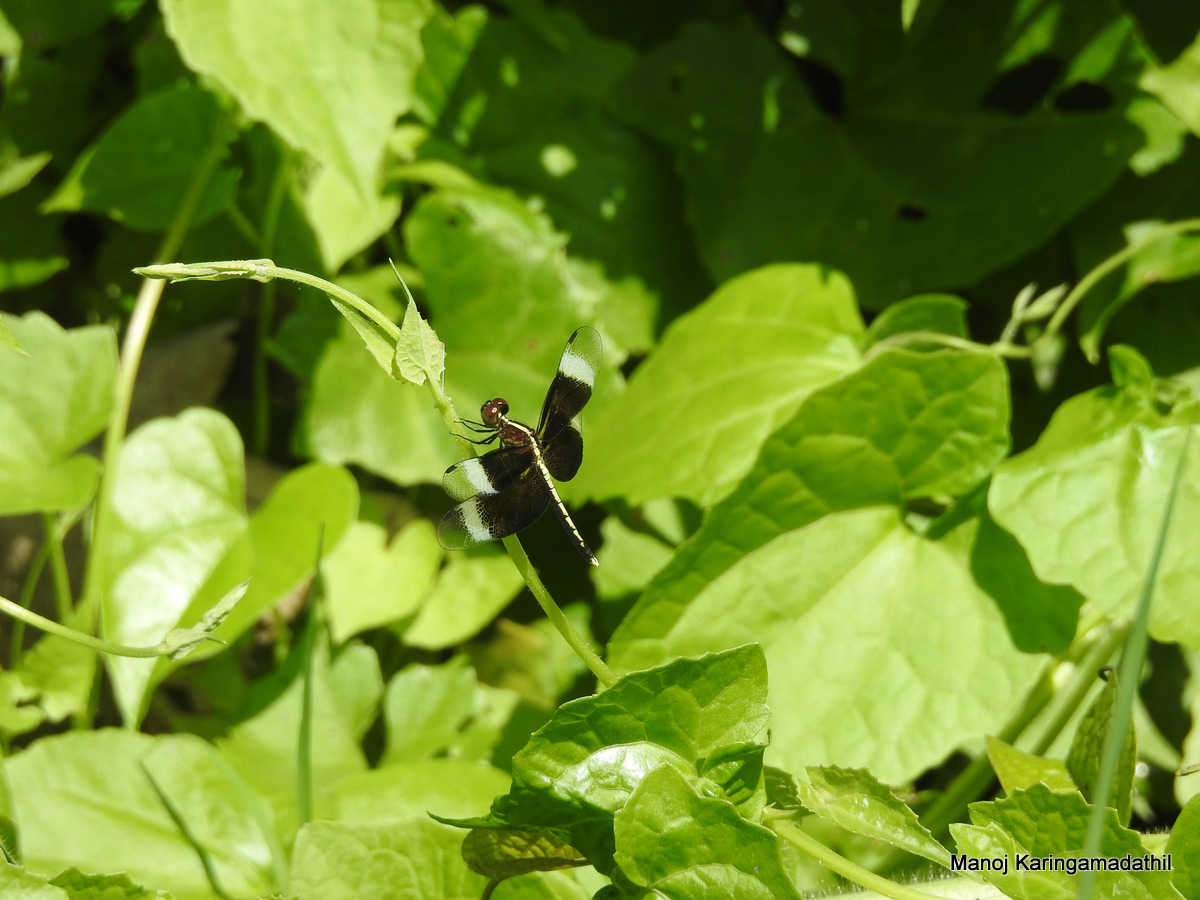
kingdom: Animalia
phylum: Arthropoda
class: Insecta
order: Odonata
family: Libellulidae
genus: Neurothemis
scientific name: Neurothemis tullia
